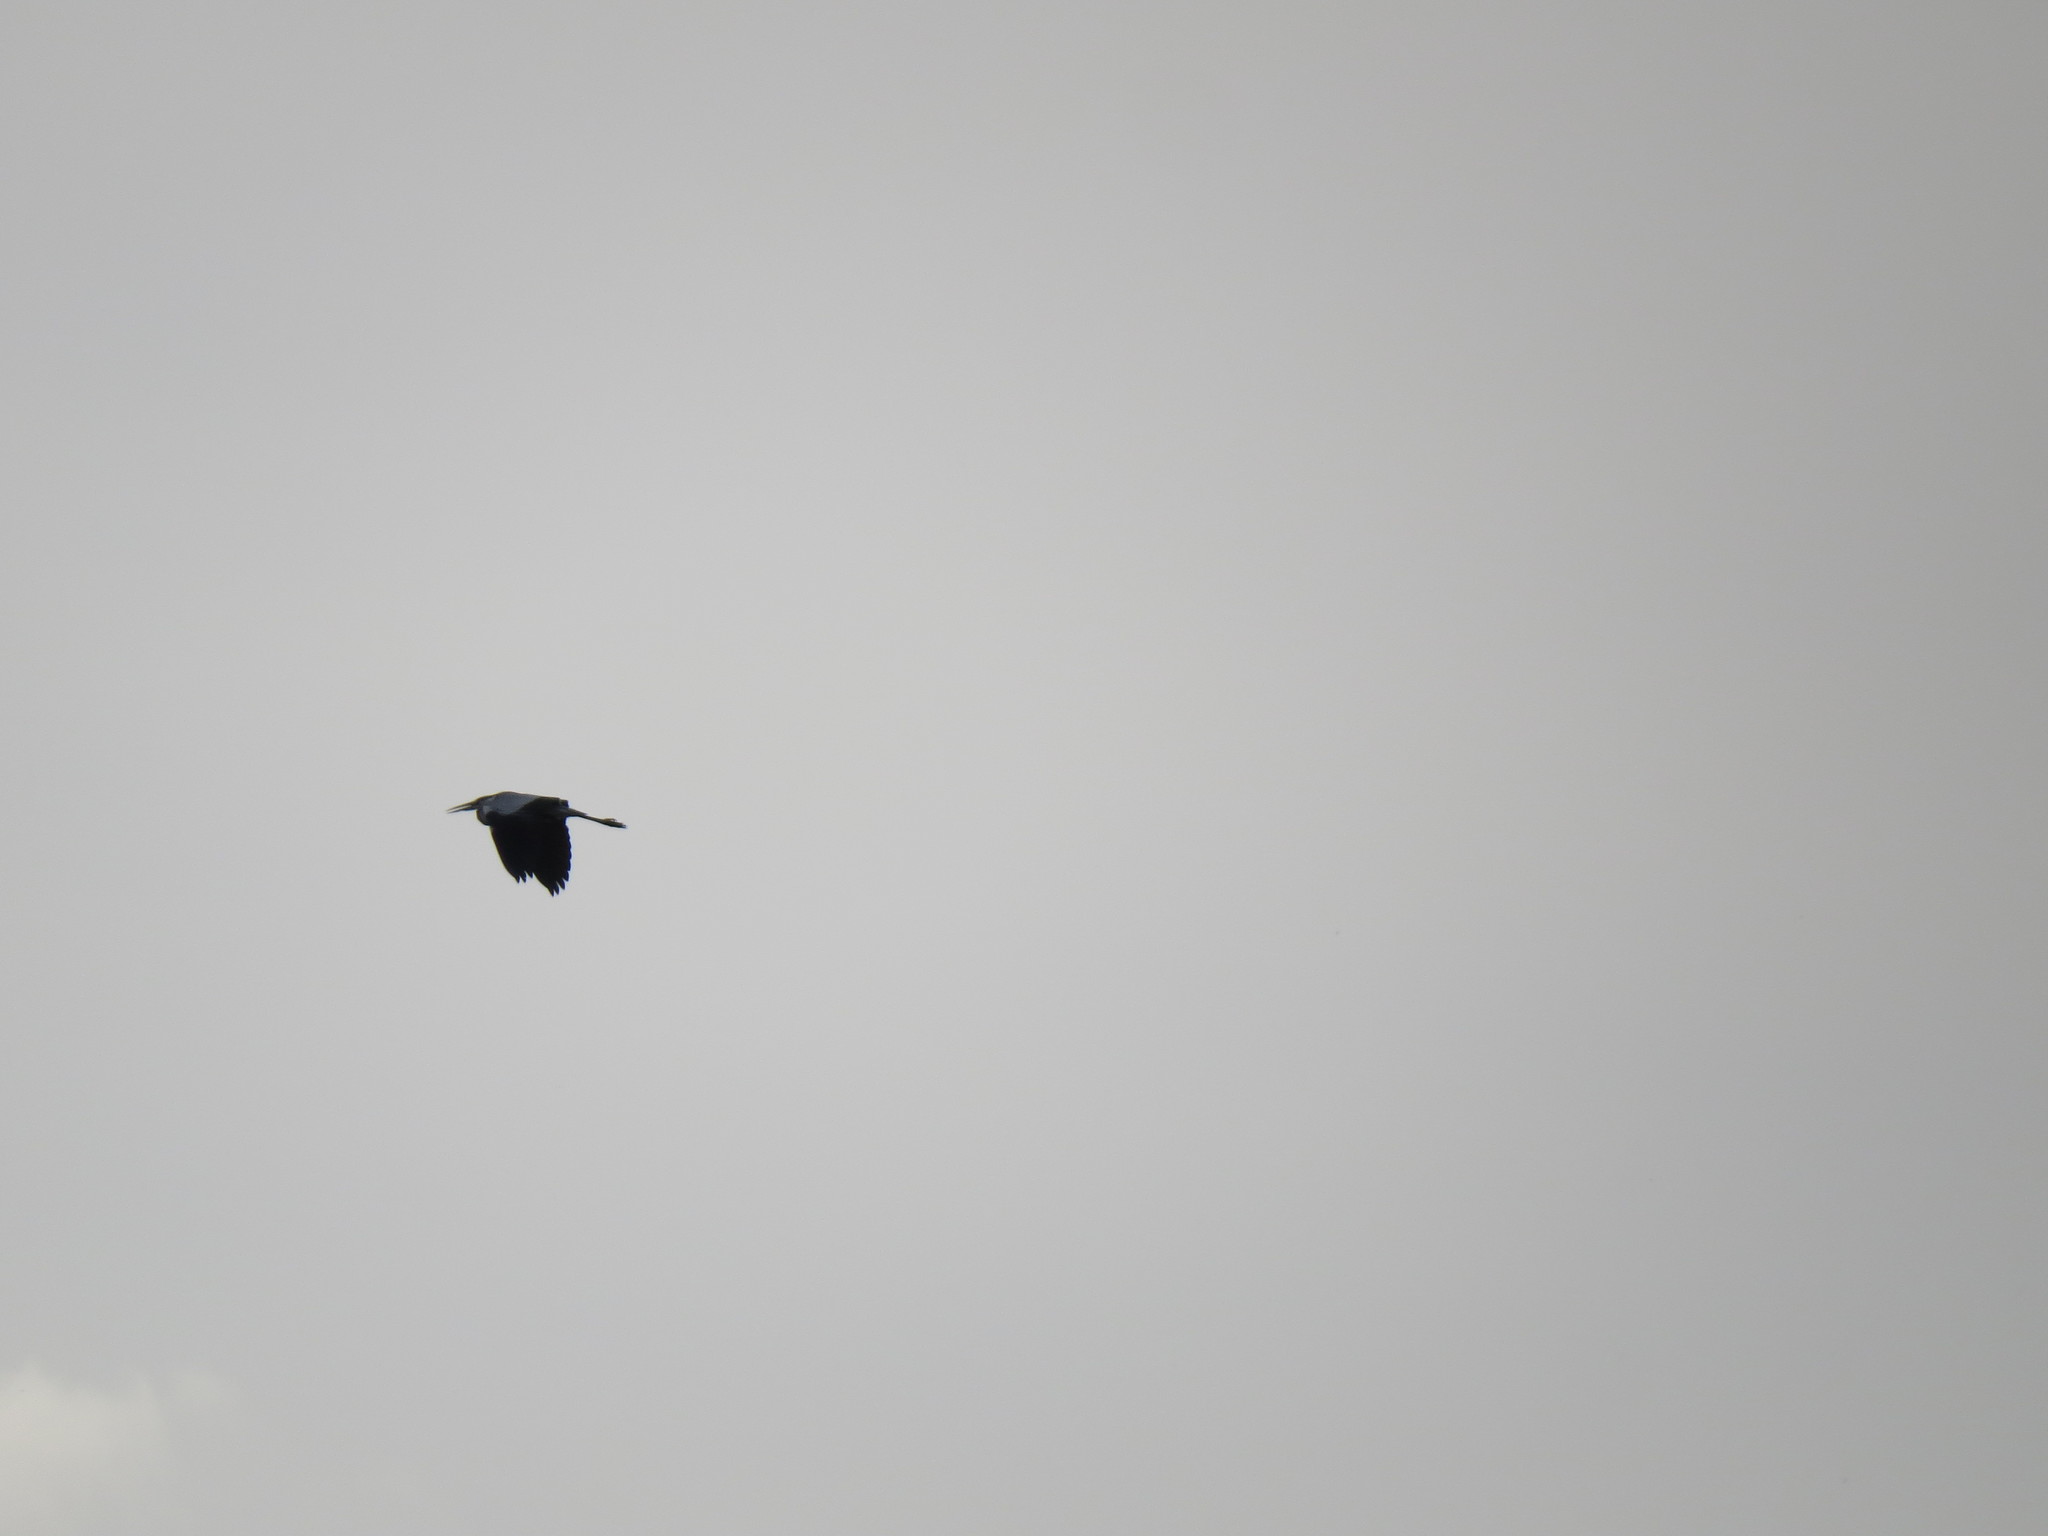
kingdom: Animalia
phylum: Chordata
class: Aves
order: Pelecaniformes
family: Ardeidae
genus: Ardea
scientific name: Ardea cinerea
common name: Grey heron
